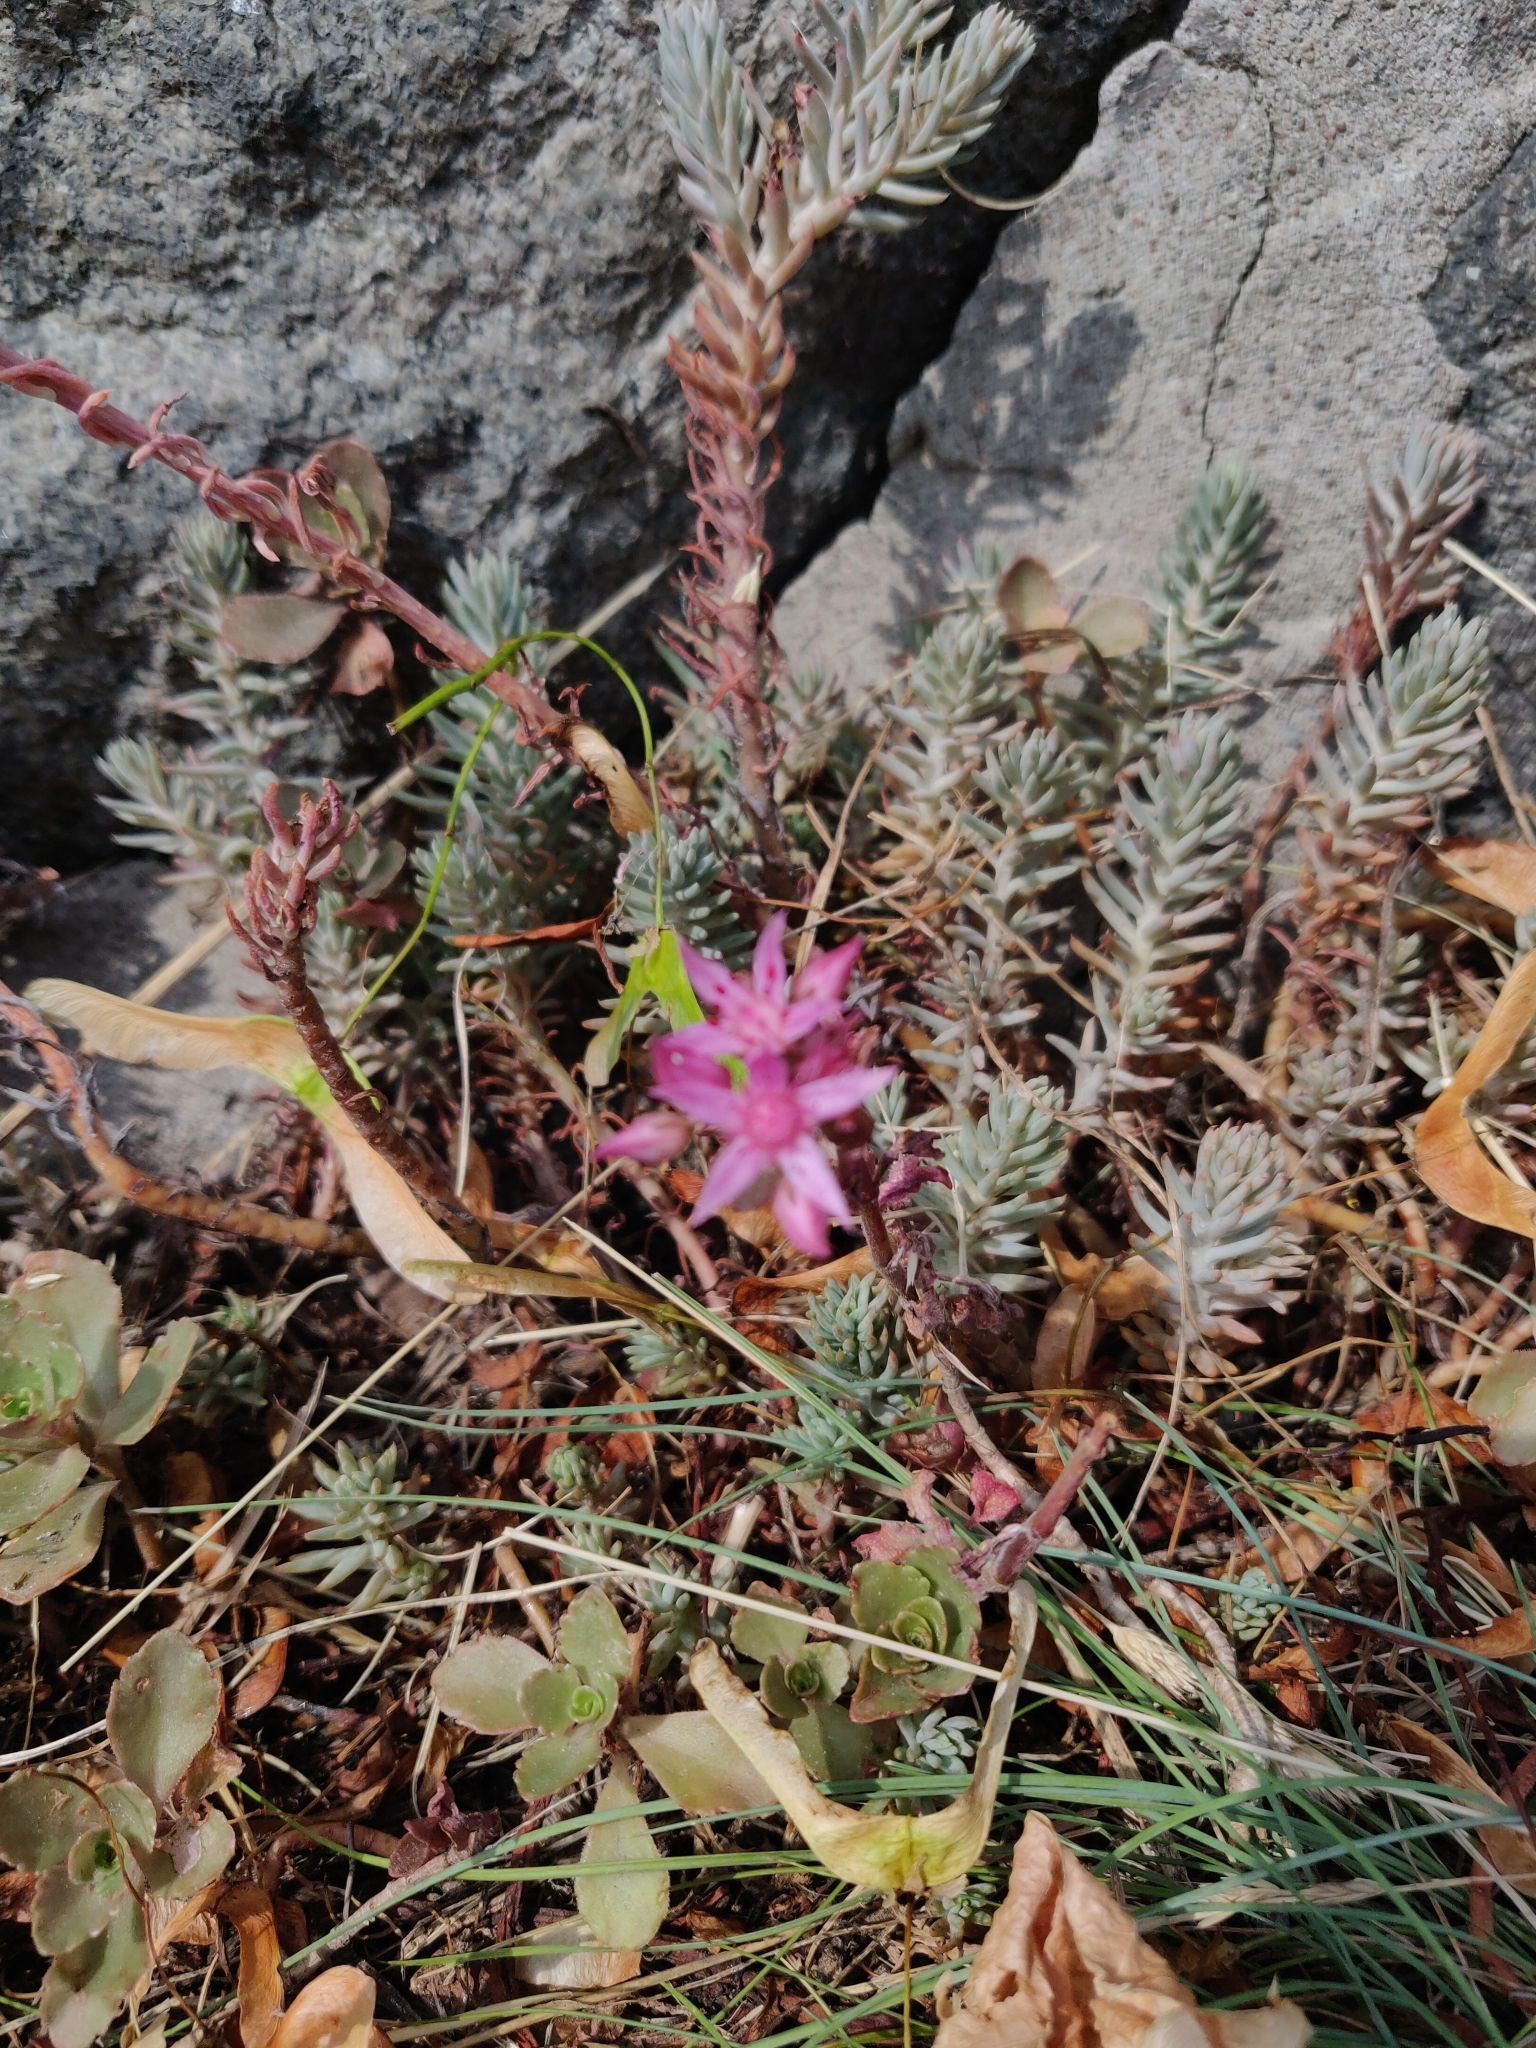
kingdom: Plantae
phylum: Tracheophyta
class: Magnoliopsida
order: Saxifragales
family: Crassulaceae
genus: Phedimus
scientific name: Phedimus spurius
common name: Caucasian stonecrop
